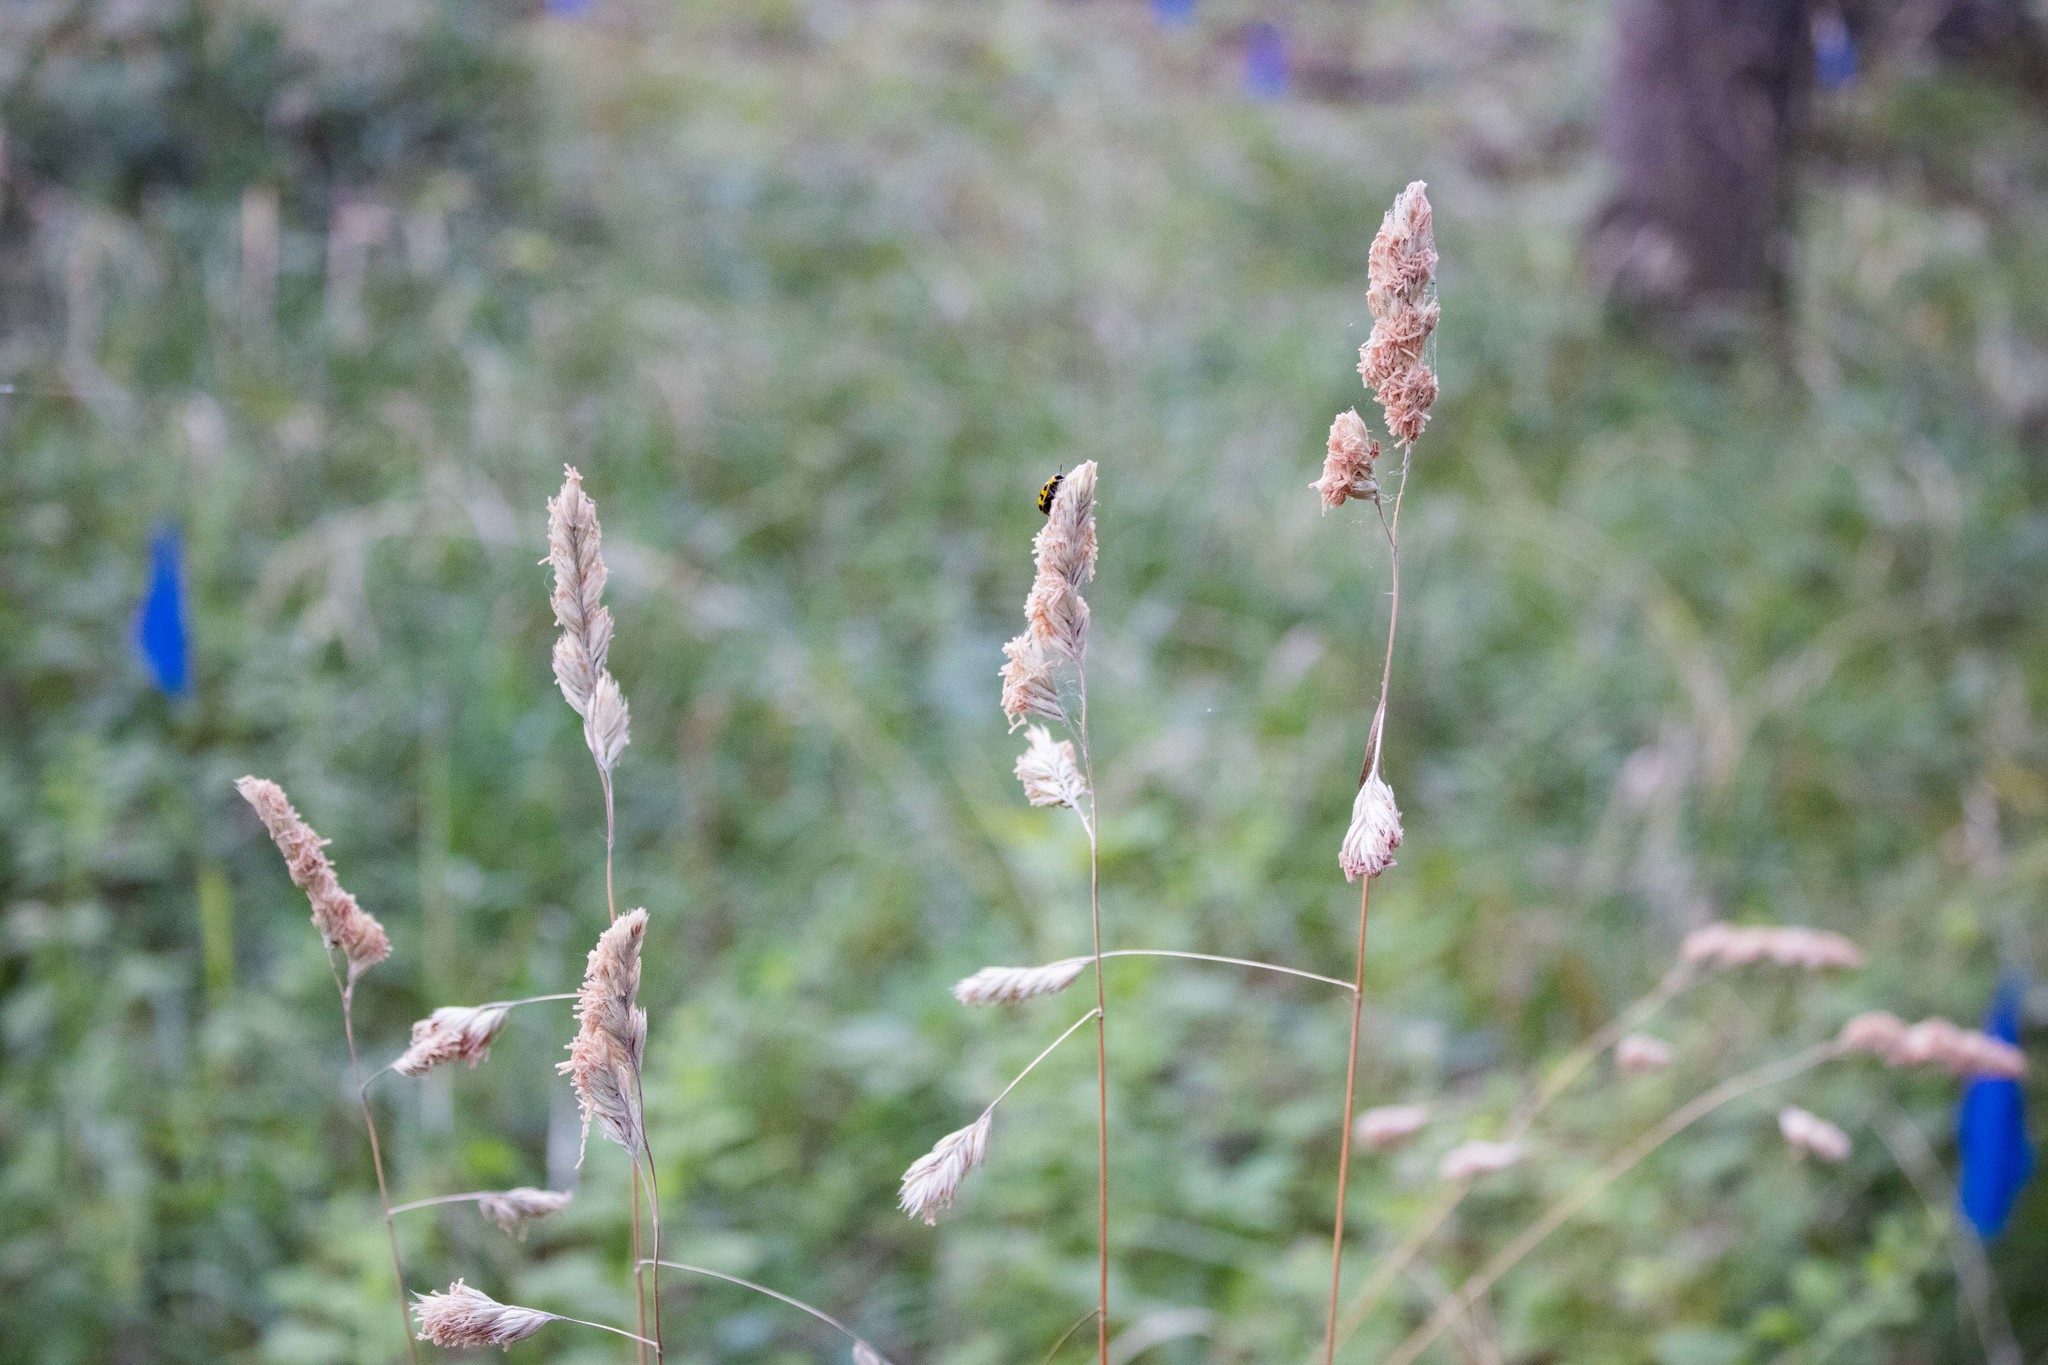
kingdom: Plantae
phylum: Tracheophyta
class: Liliopsida
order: Poales
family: Poaceae
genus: Dactylis
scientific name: Dactylis glomerata
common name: Orchardgrass
